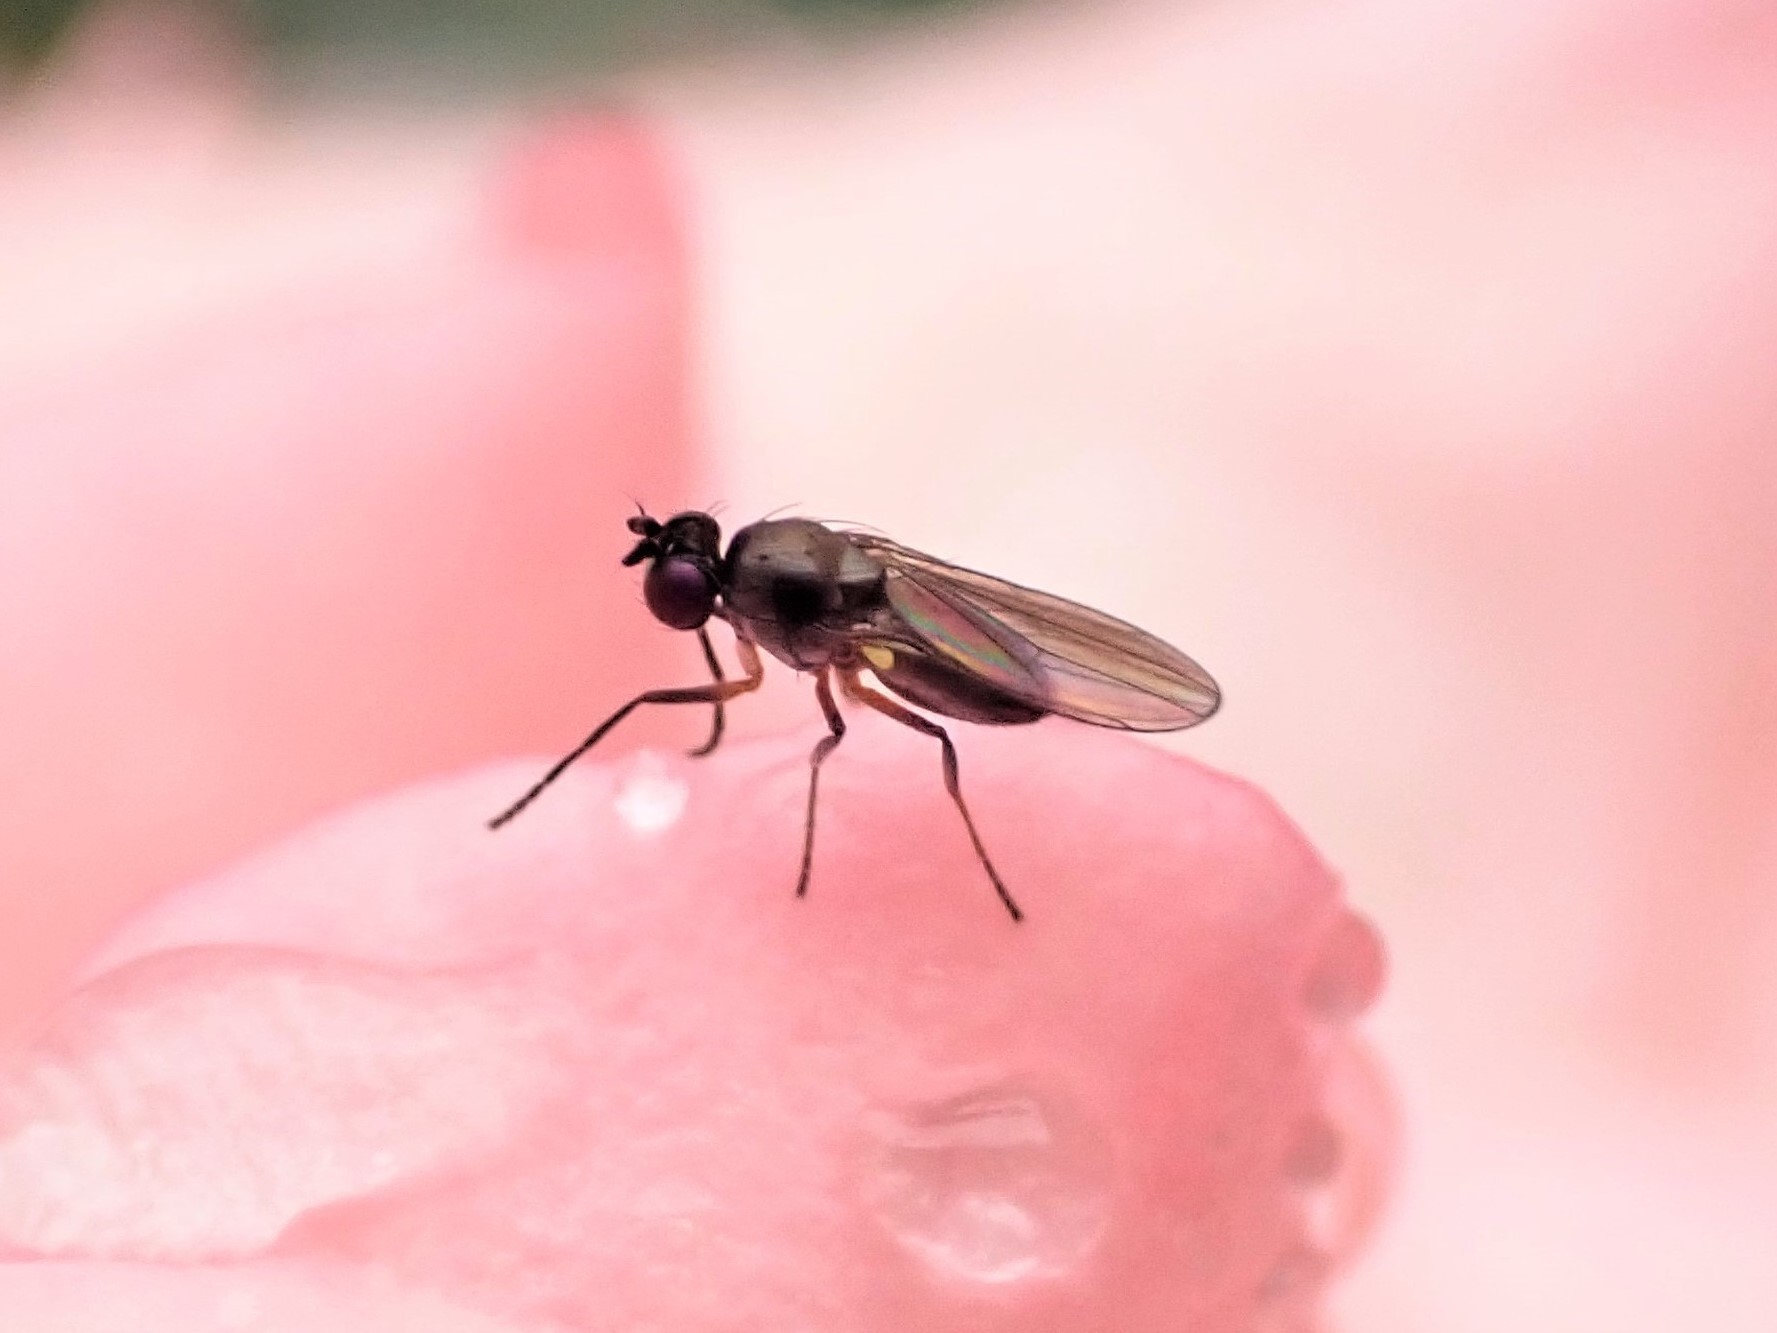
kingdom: Animalia
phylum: Arthropoda
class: Insecta
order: Diptera
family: Ephydridae
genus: Hydrellia
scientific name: Hydrellia tritici
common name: Shore fly
